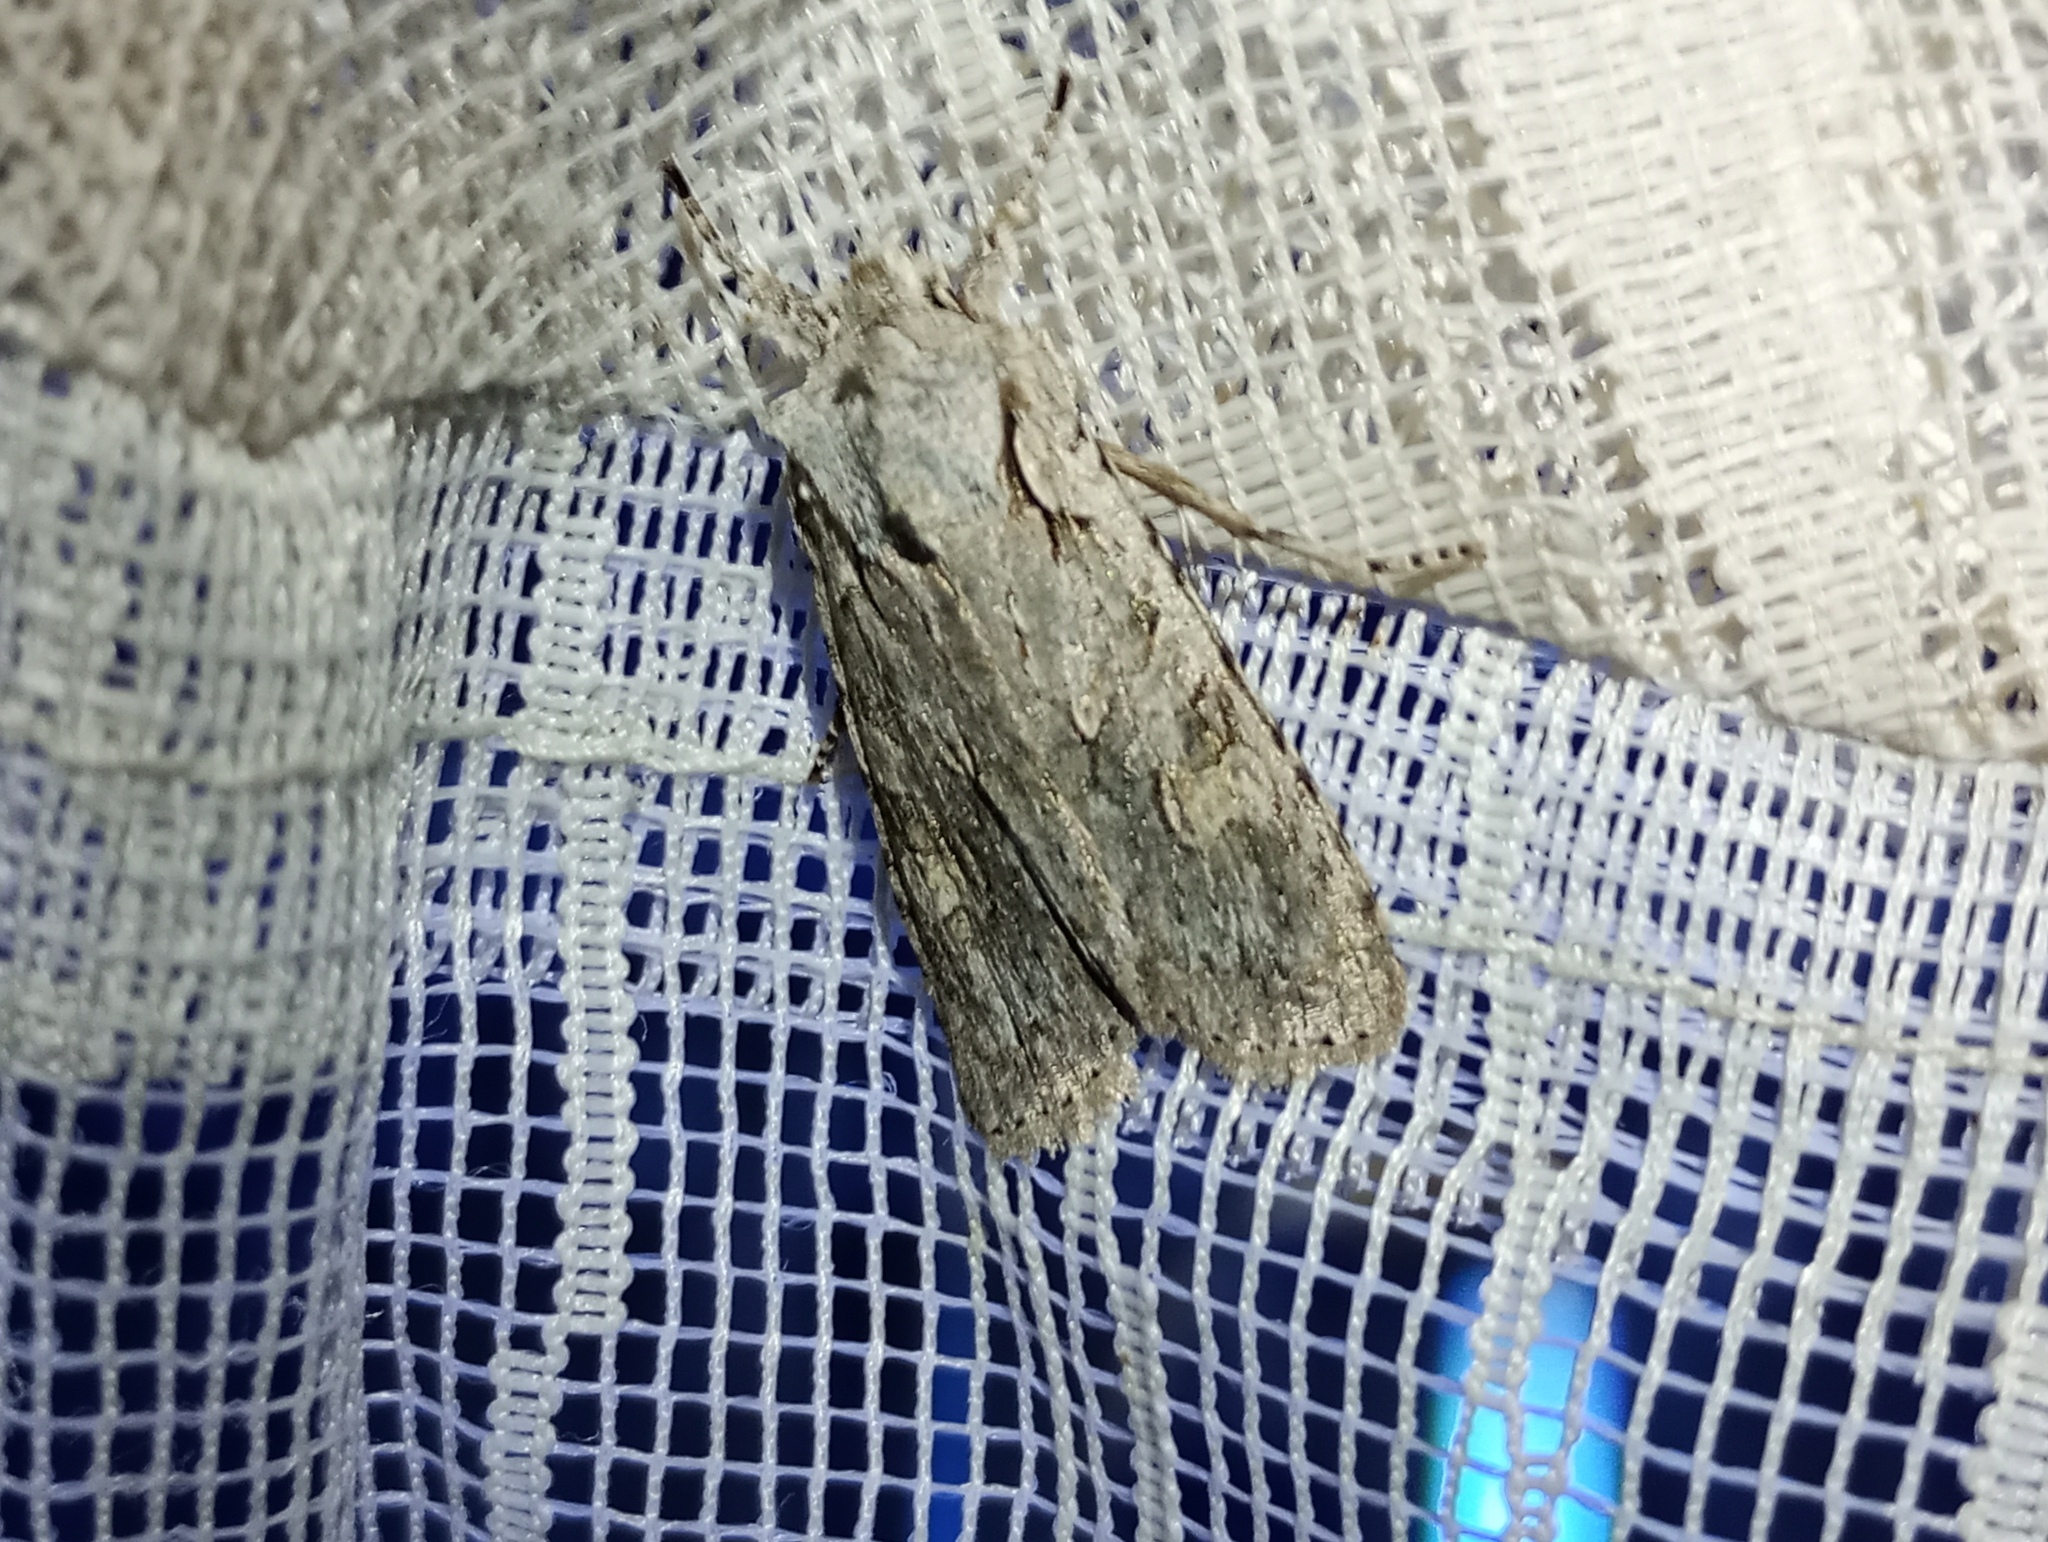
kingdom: Animalia
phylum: Arthropoda
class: Insecta
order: Lepidoptera
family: Noctuidae
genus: Lithophane
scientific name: Lithophane ornitopus
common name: Grey shoulder-knot
